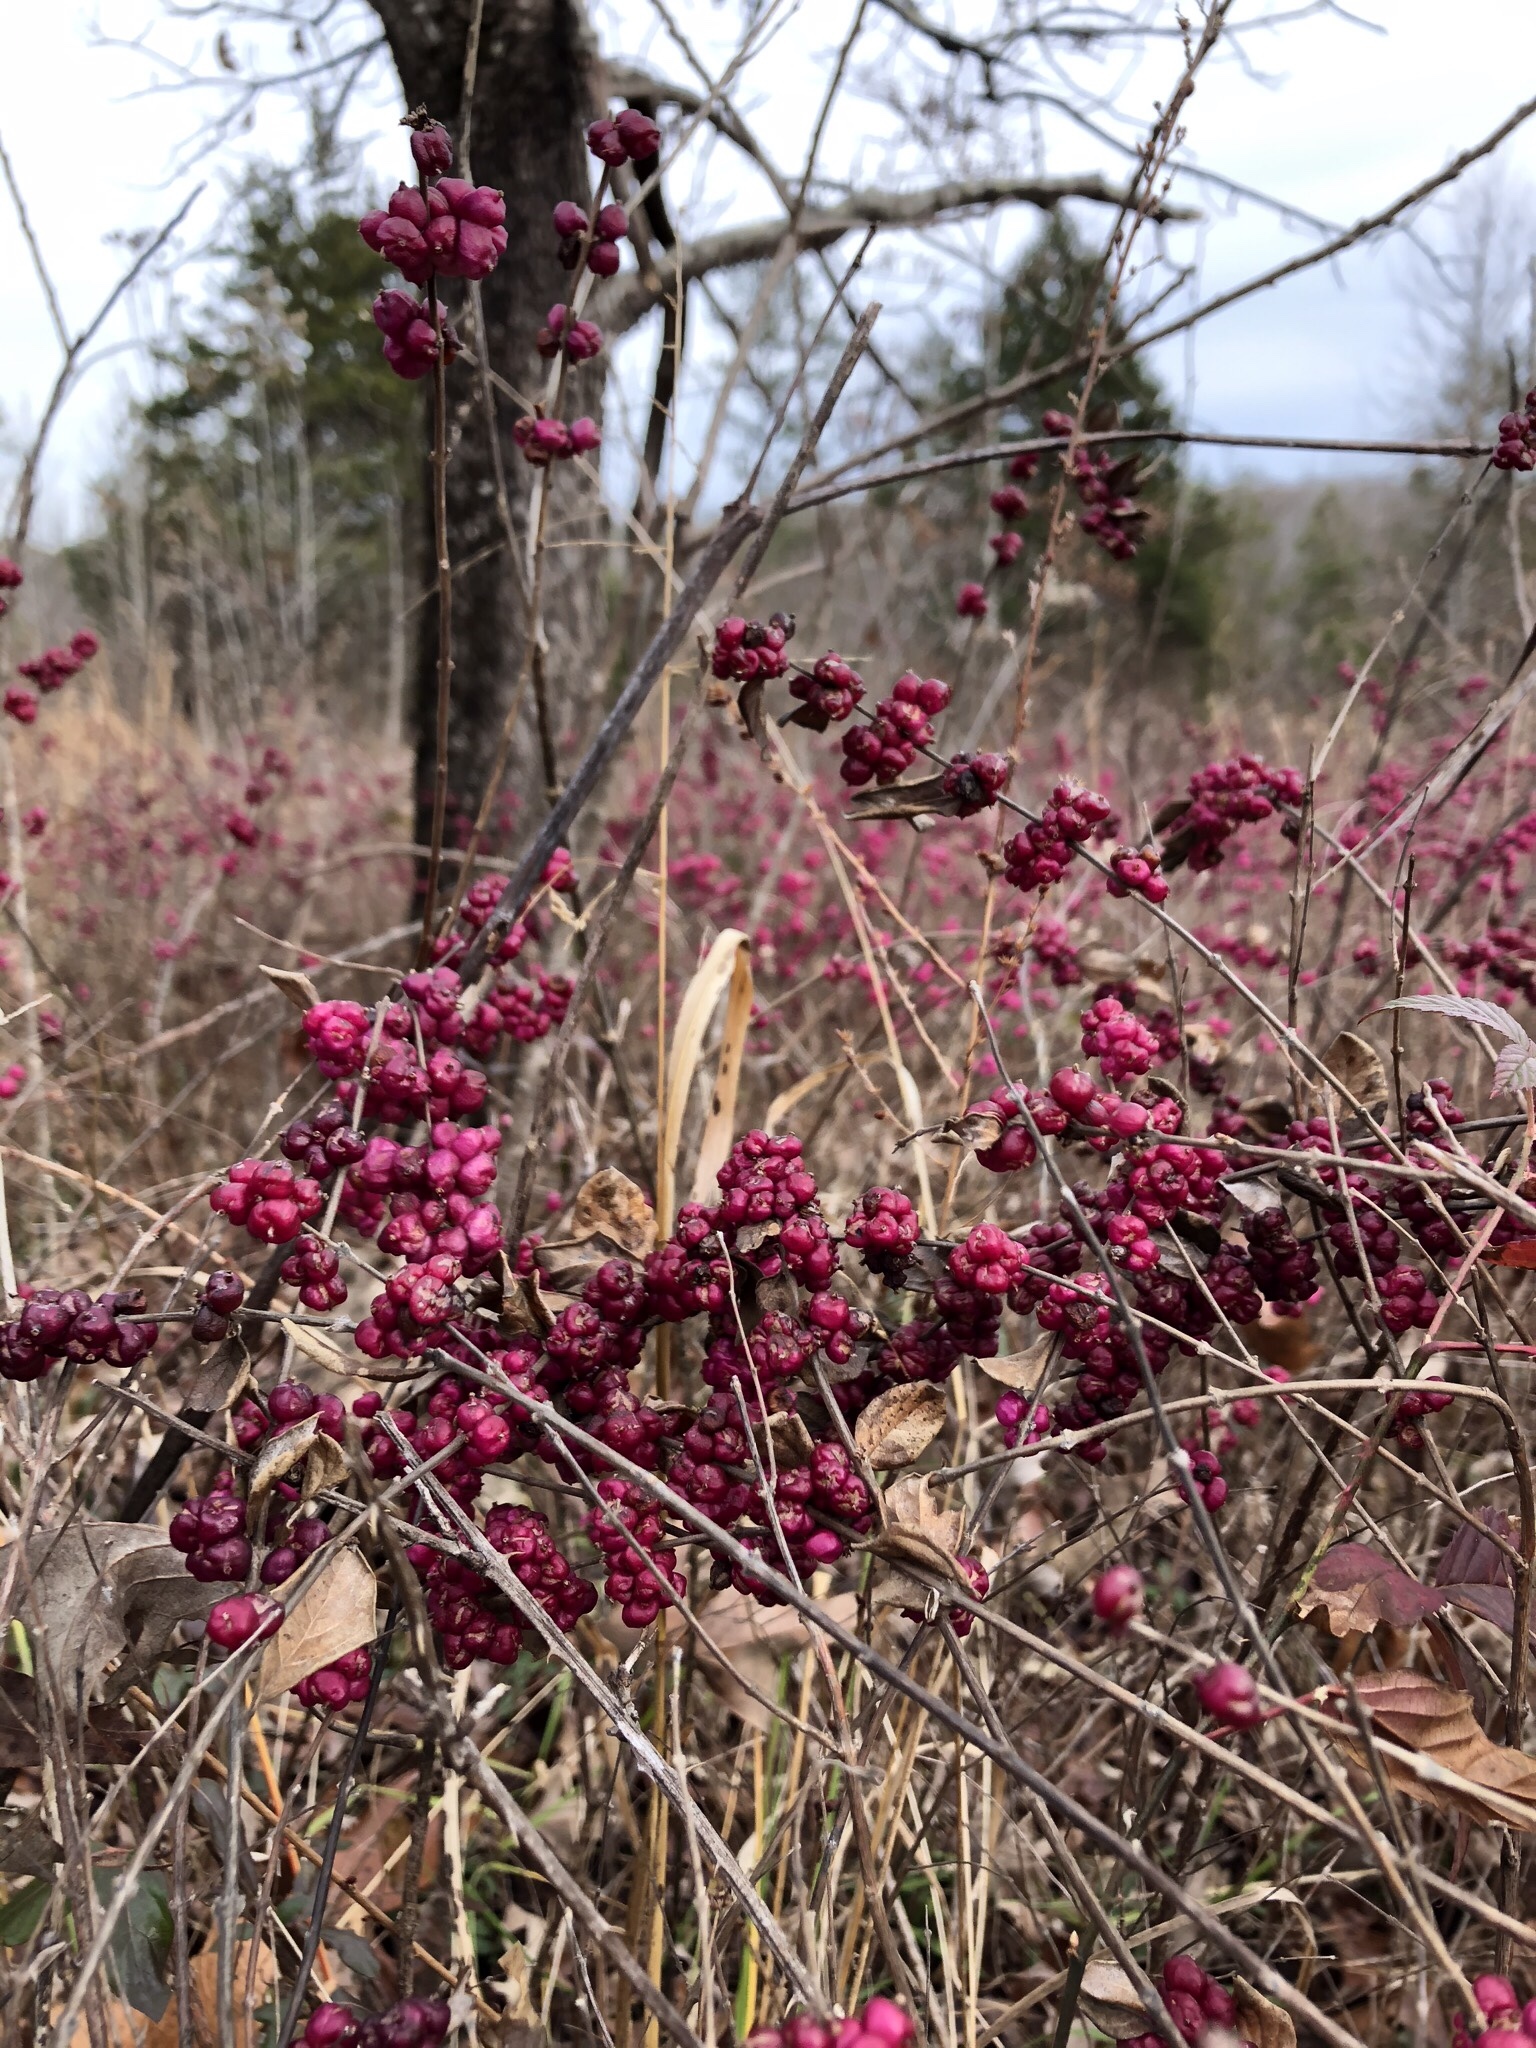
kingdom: Plantae
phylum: Tracheophyta
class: Magnoliopsida
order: Dipsacales
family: Caprifoliaceae
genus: Symphoricarpos
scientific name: Symphoricarpos orbiculatus
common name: Coralberry
